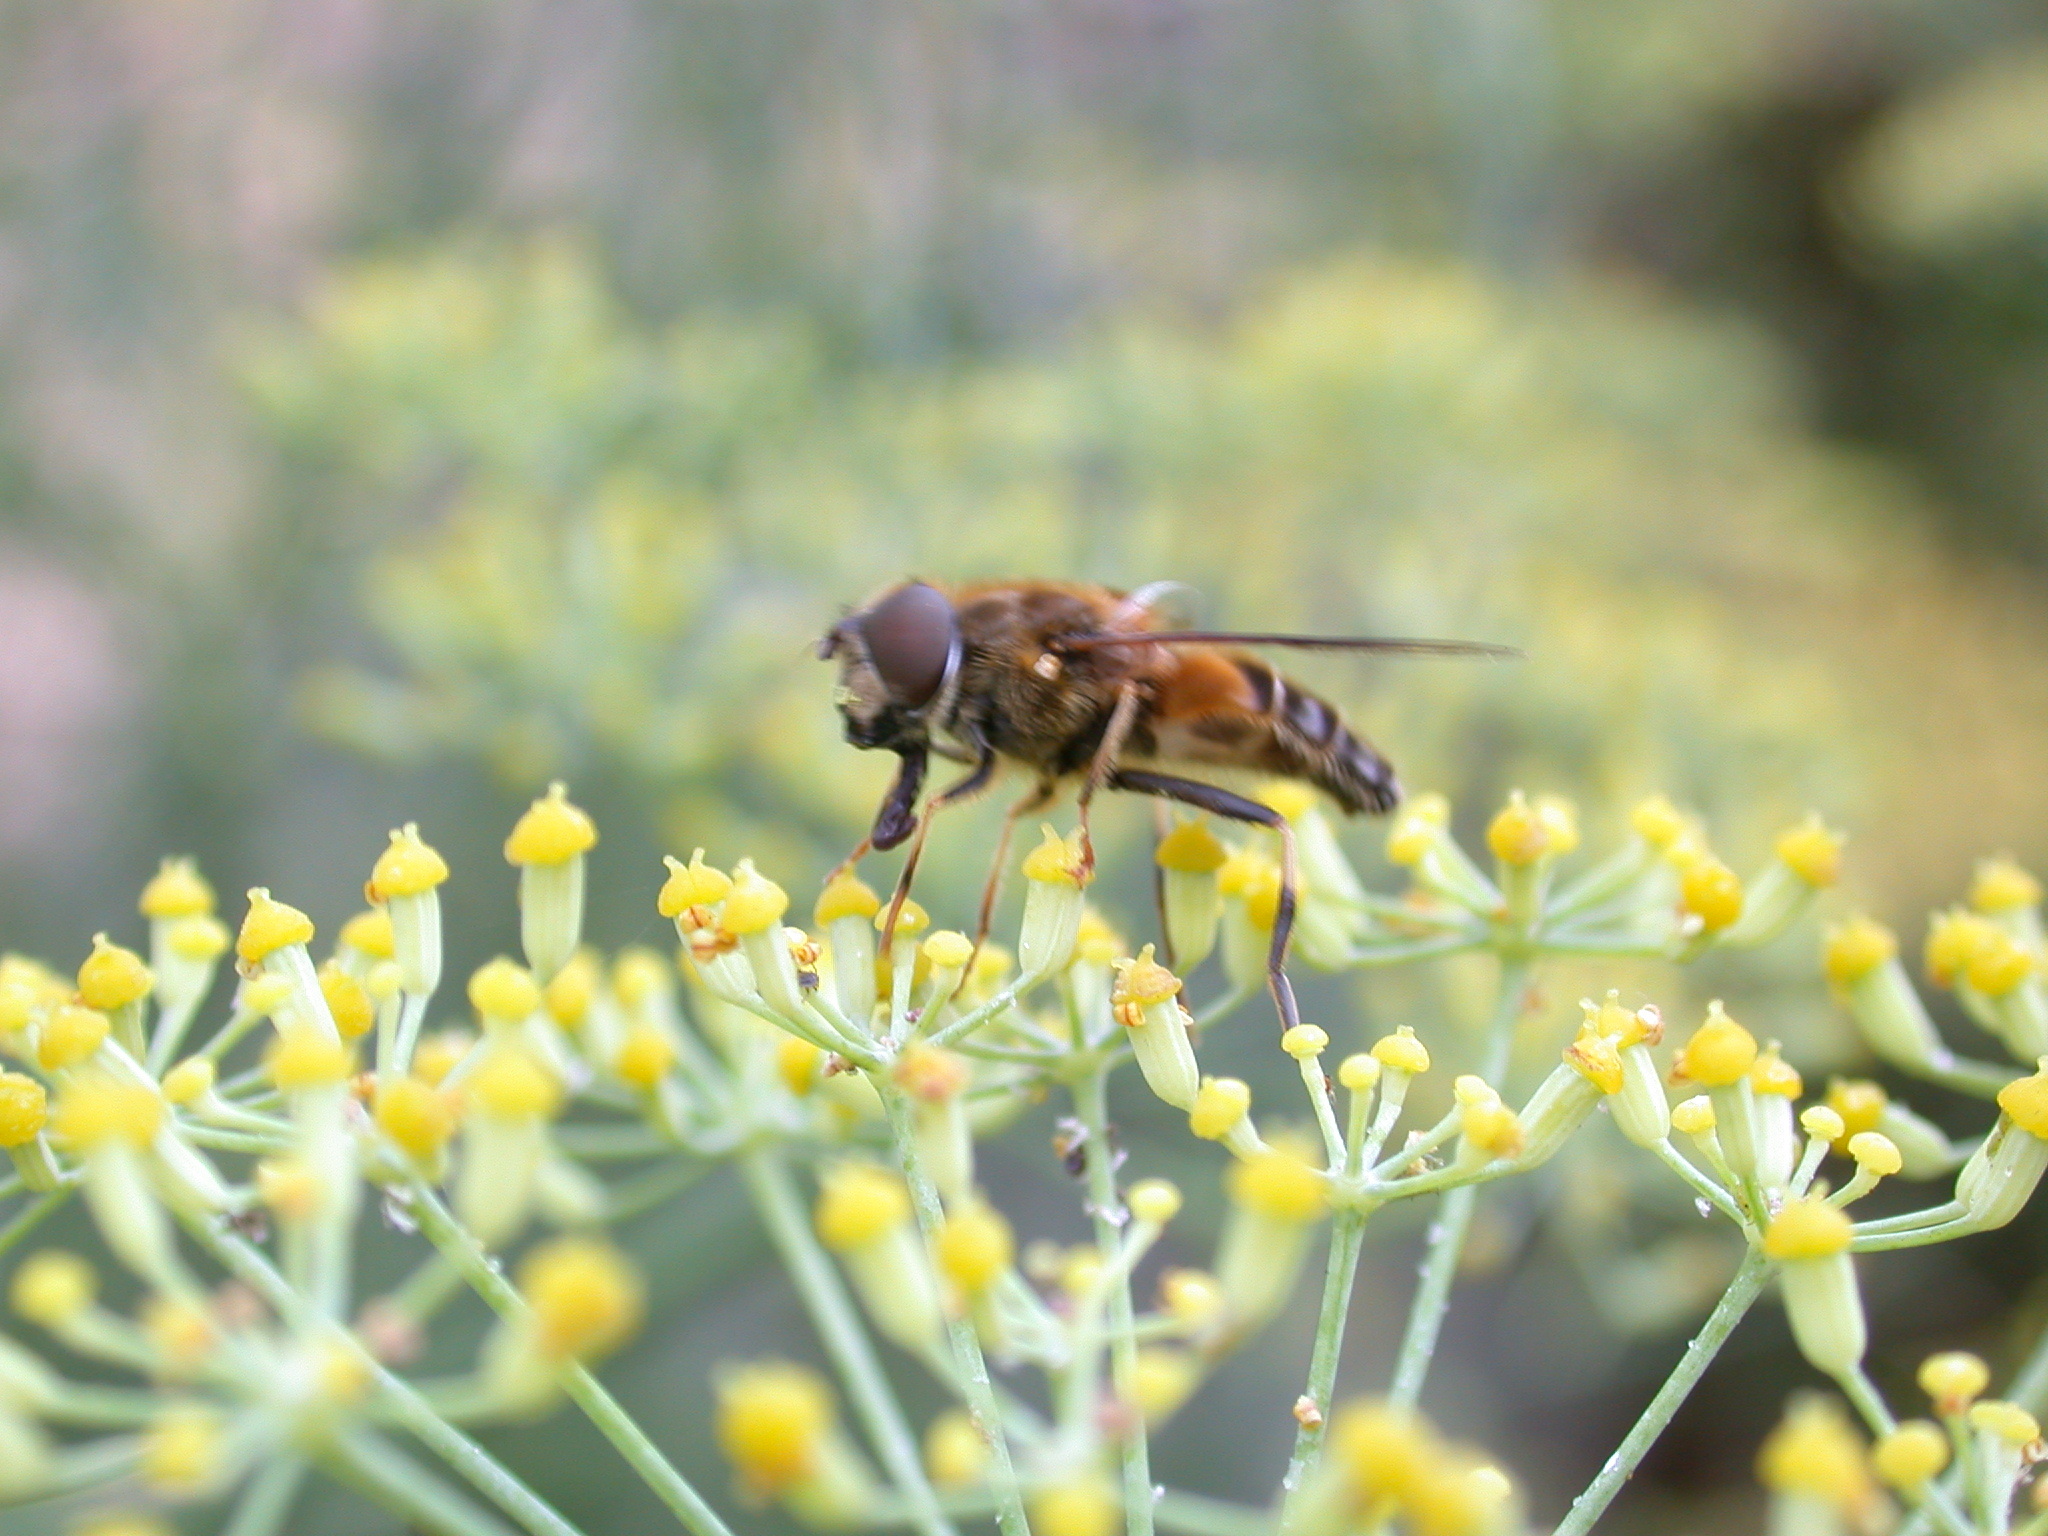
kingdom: Animalia
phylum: Arthropoda
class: Insecta
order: Diptera
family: Syrphidae
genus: Eristalis
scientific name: Eristalis pertinax
